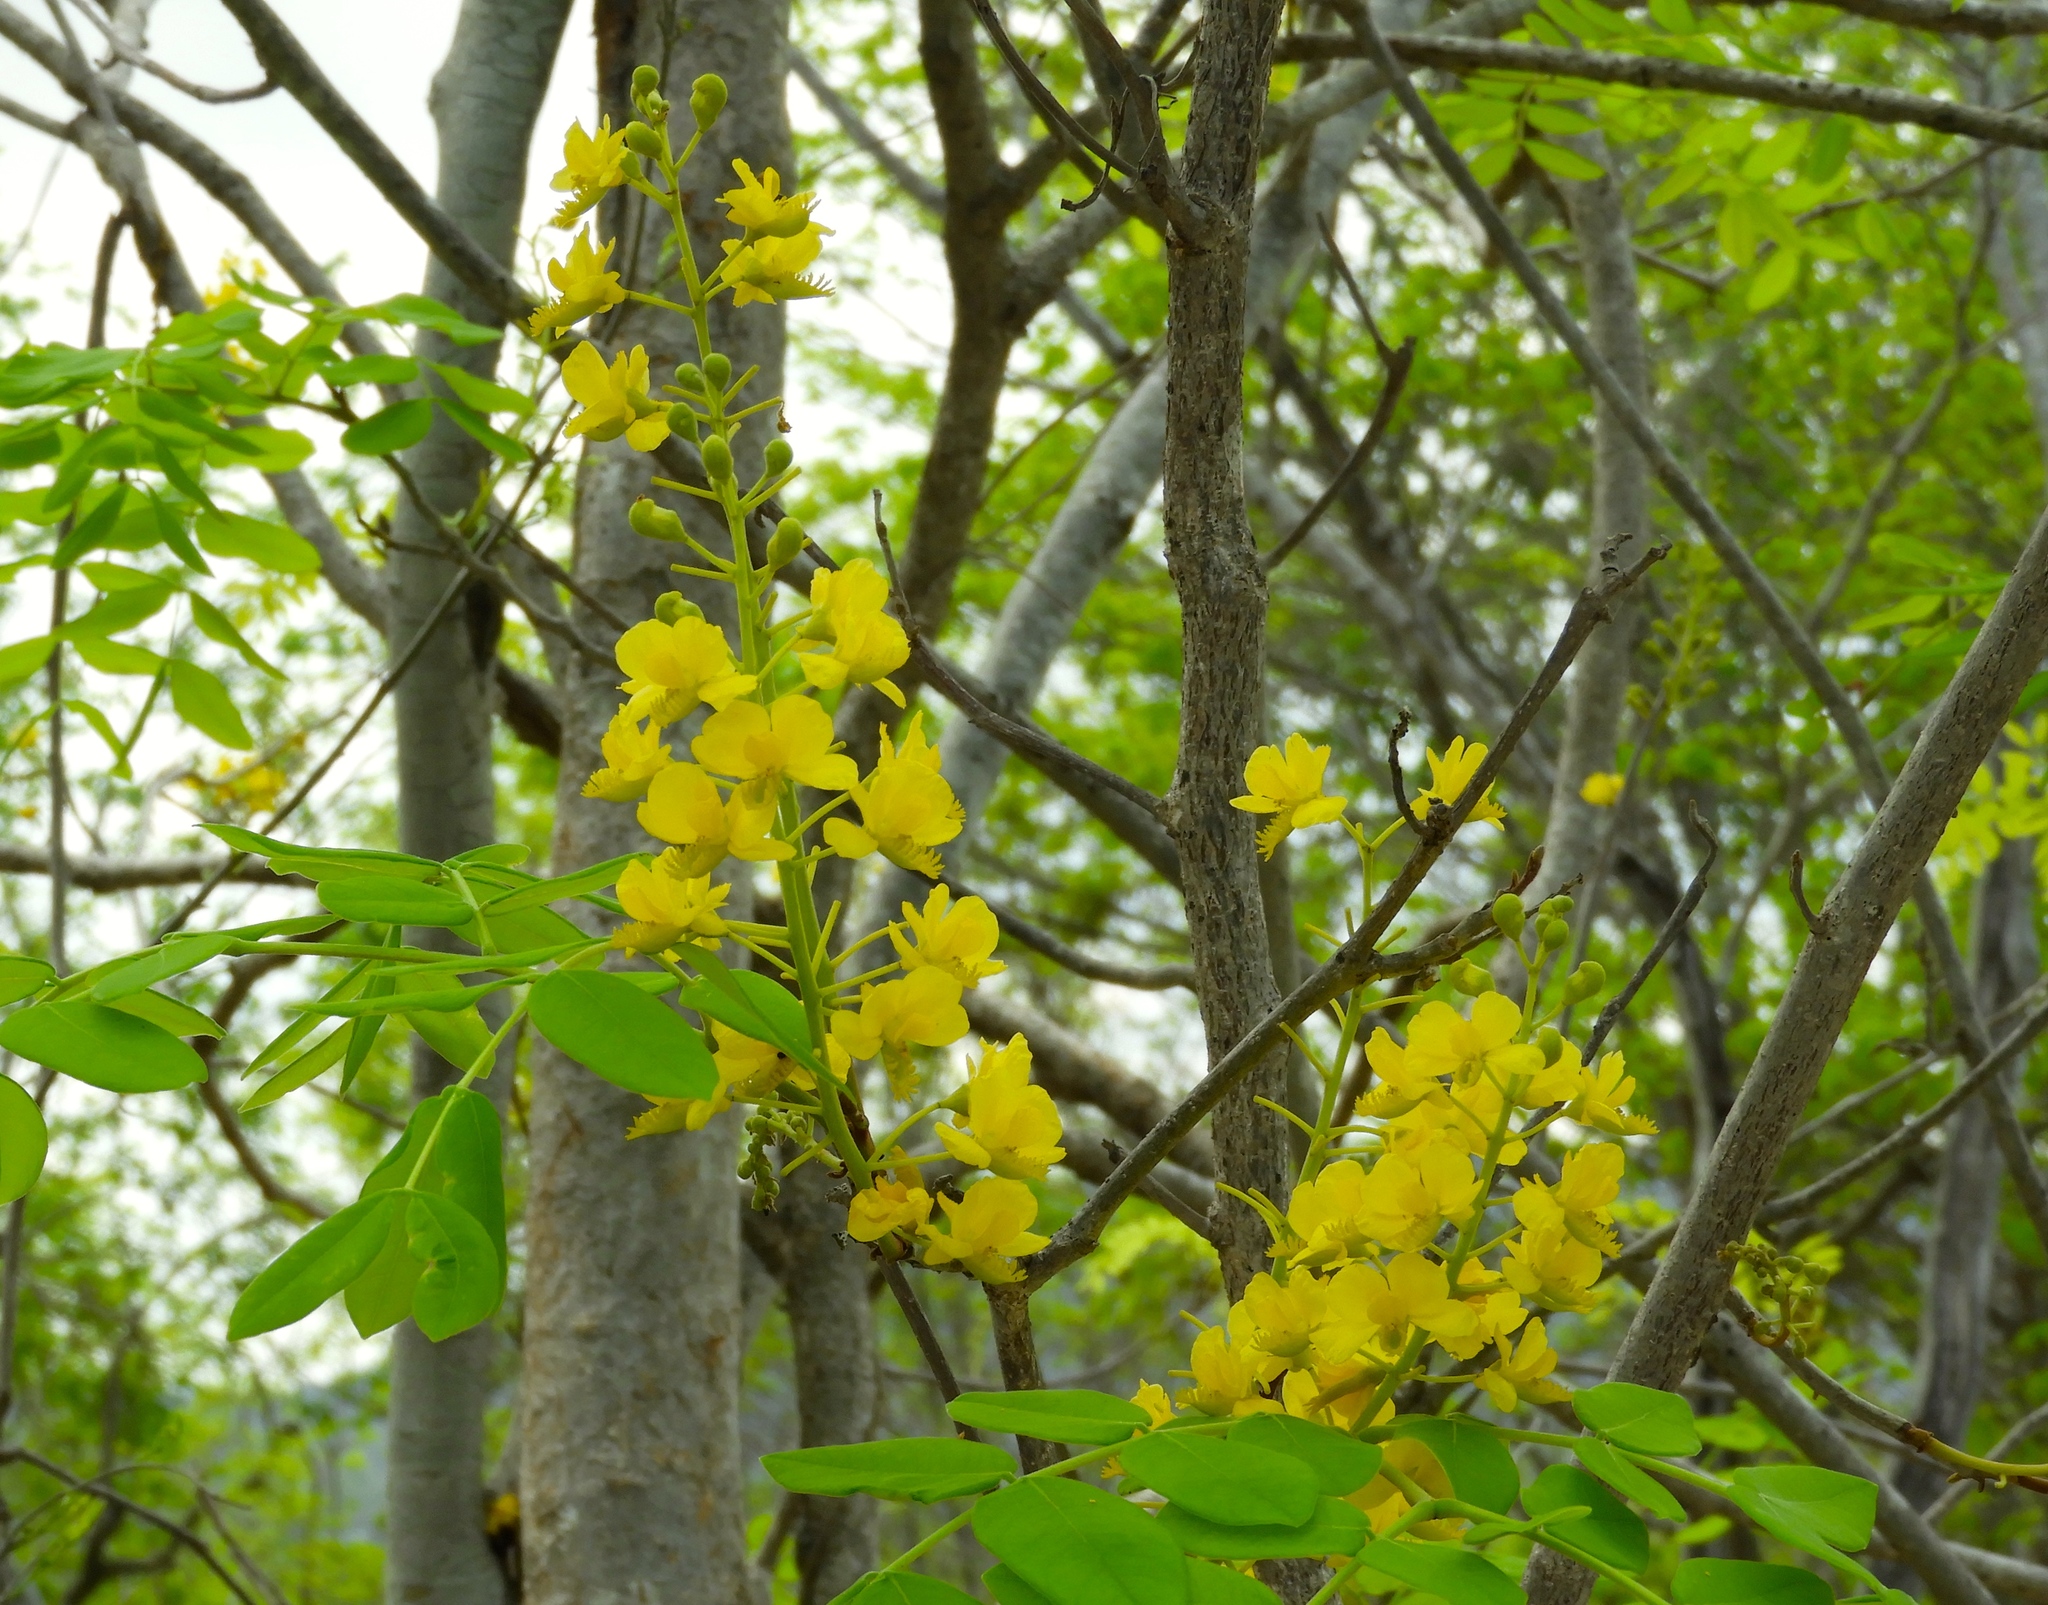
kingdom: Plantae
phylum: Tracheophyta
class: Magnoliopsida
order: Fabales
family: Fabaceae
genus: Coulteria
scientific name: Coulteria platyloba
